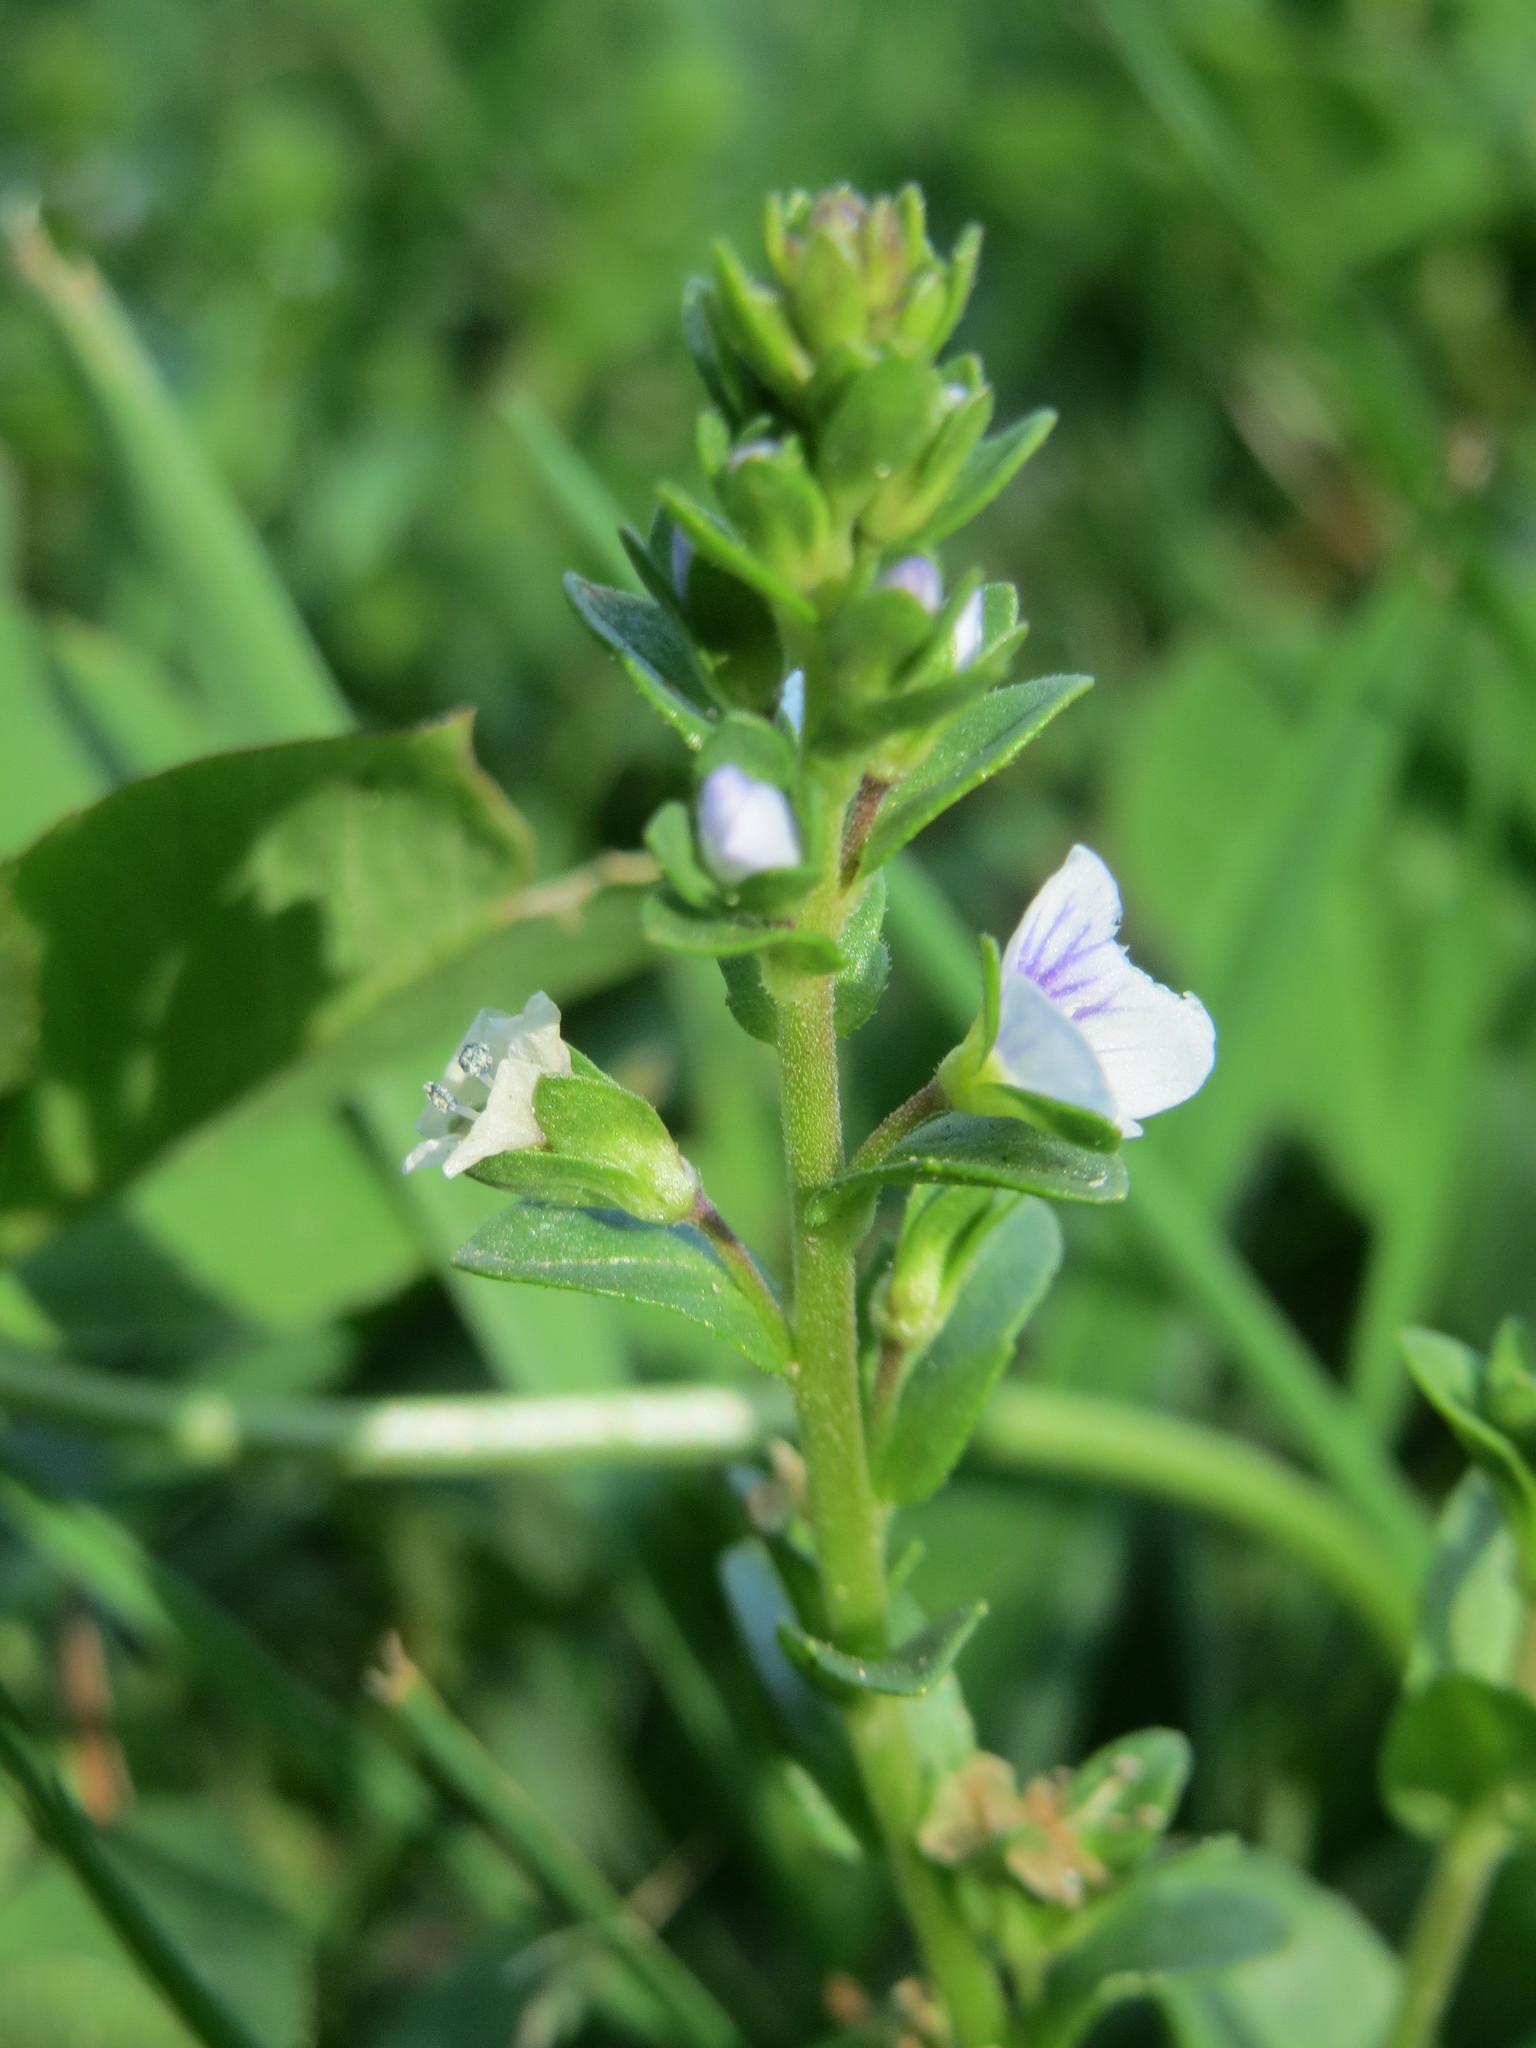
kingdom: Plantae
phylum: Tracheophyta
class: Magnoliopsida
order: Lamiales
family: Plantaginaceae
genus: Veronica
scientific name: Veronica serpyllifolia
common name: Thyme-leaved speedwell
